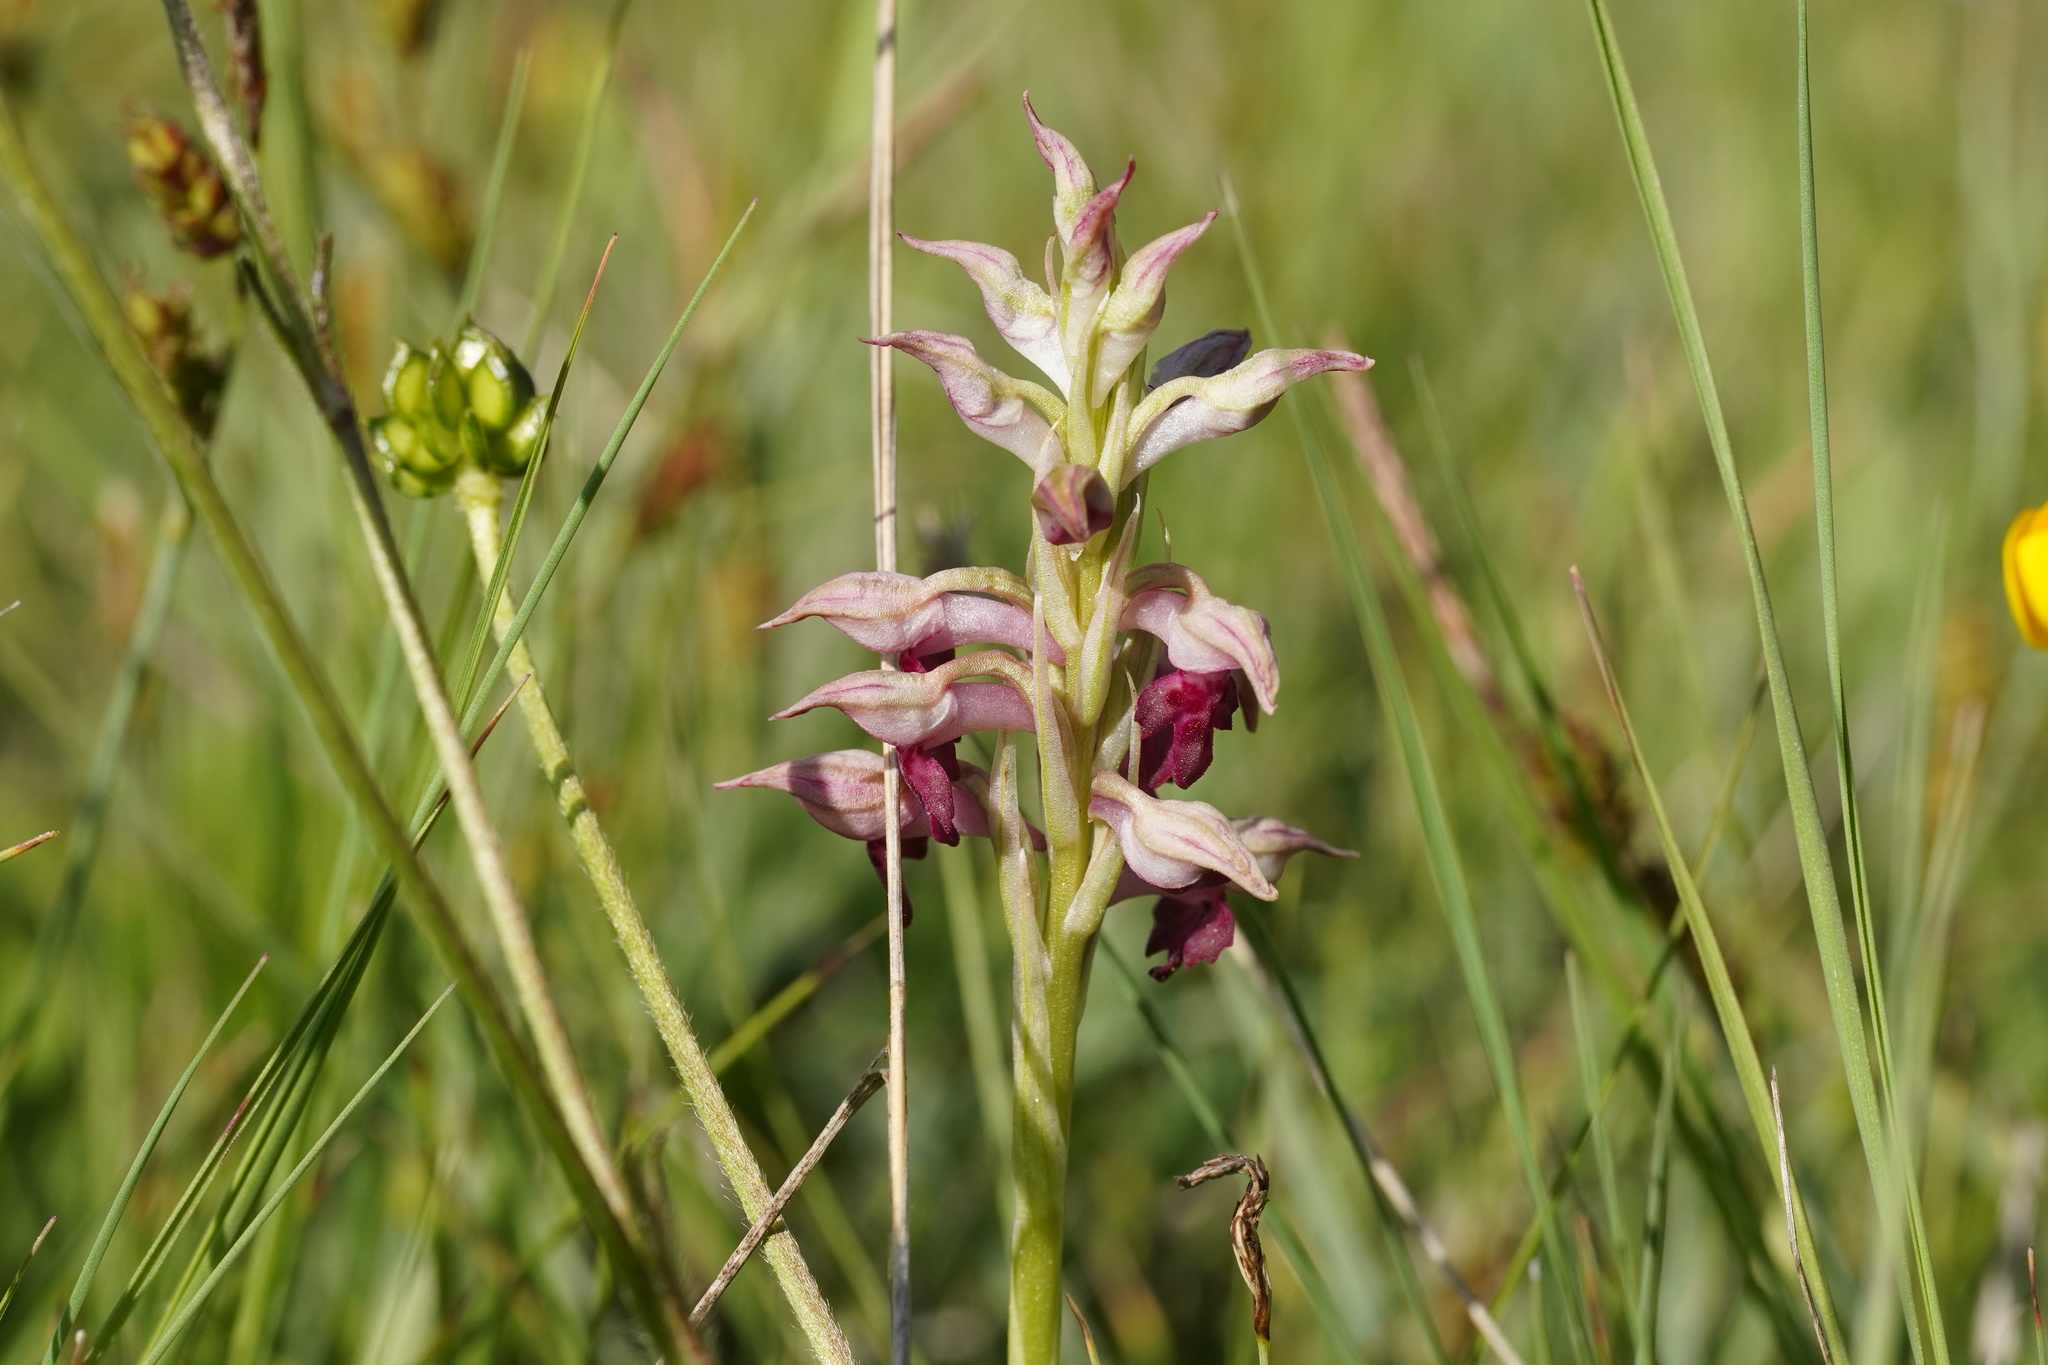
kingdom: Plantae
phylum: Tracheophyta
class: Liliopsida
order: Asparagales
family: Orchidaceae
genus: Anacamptis
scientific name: Anacamptis coriophora
